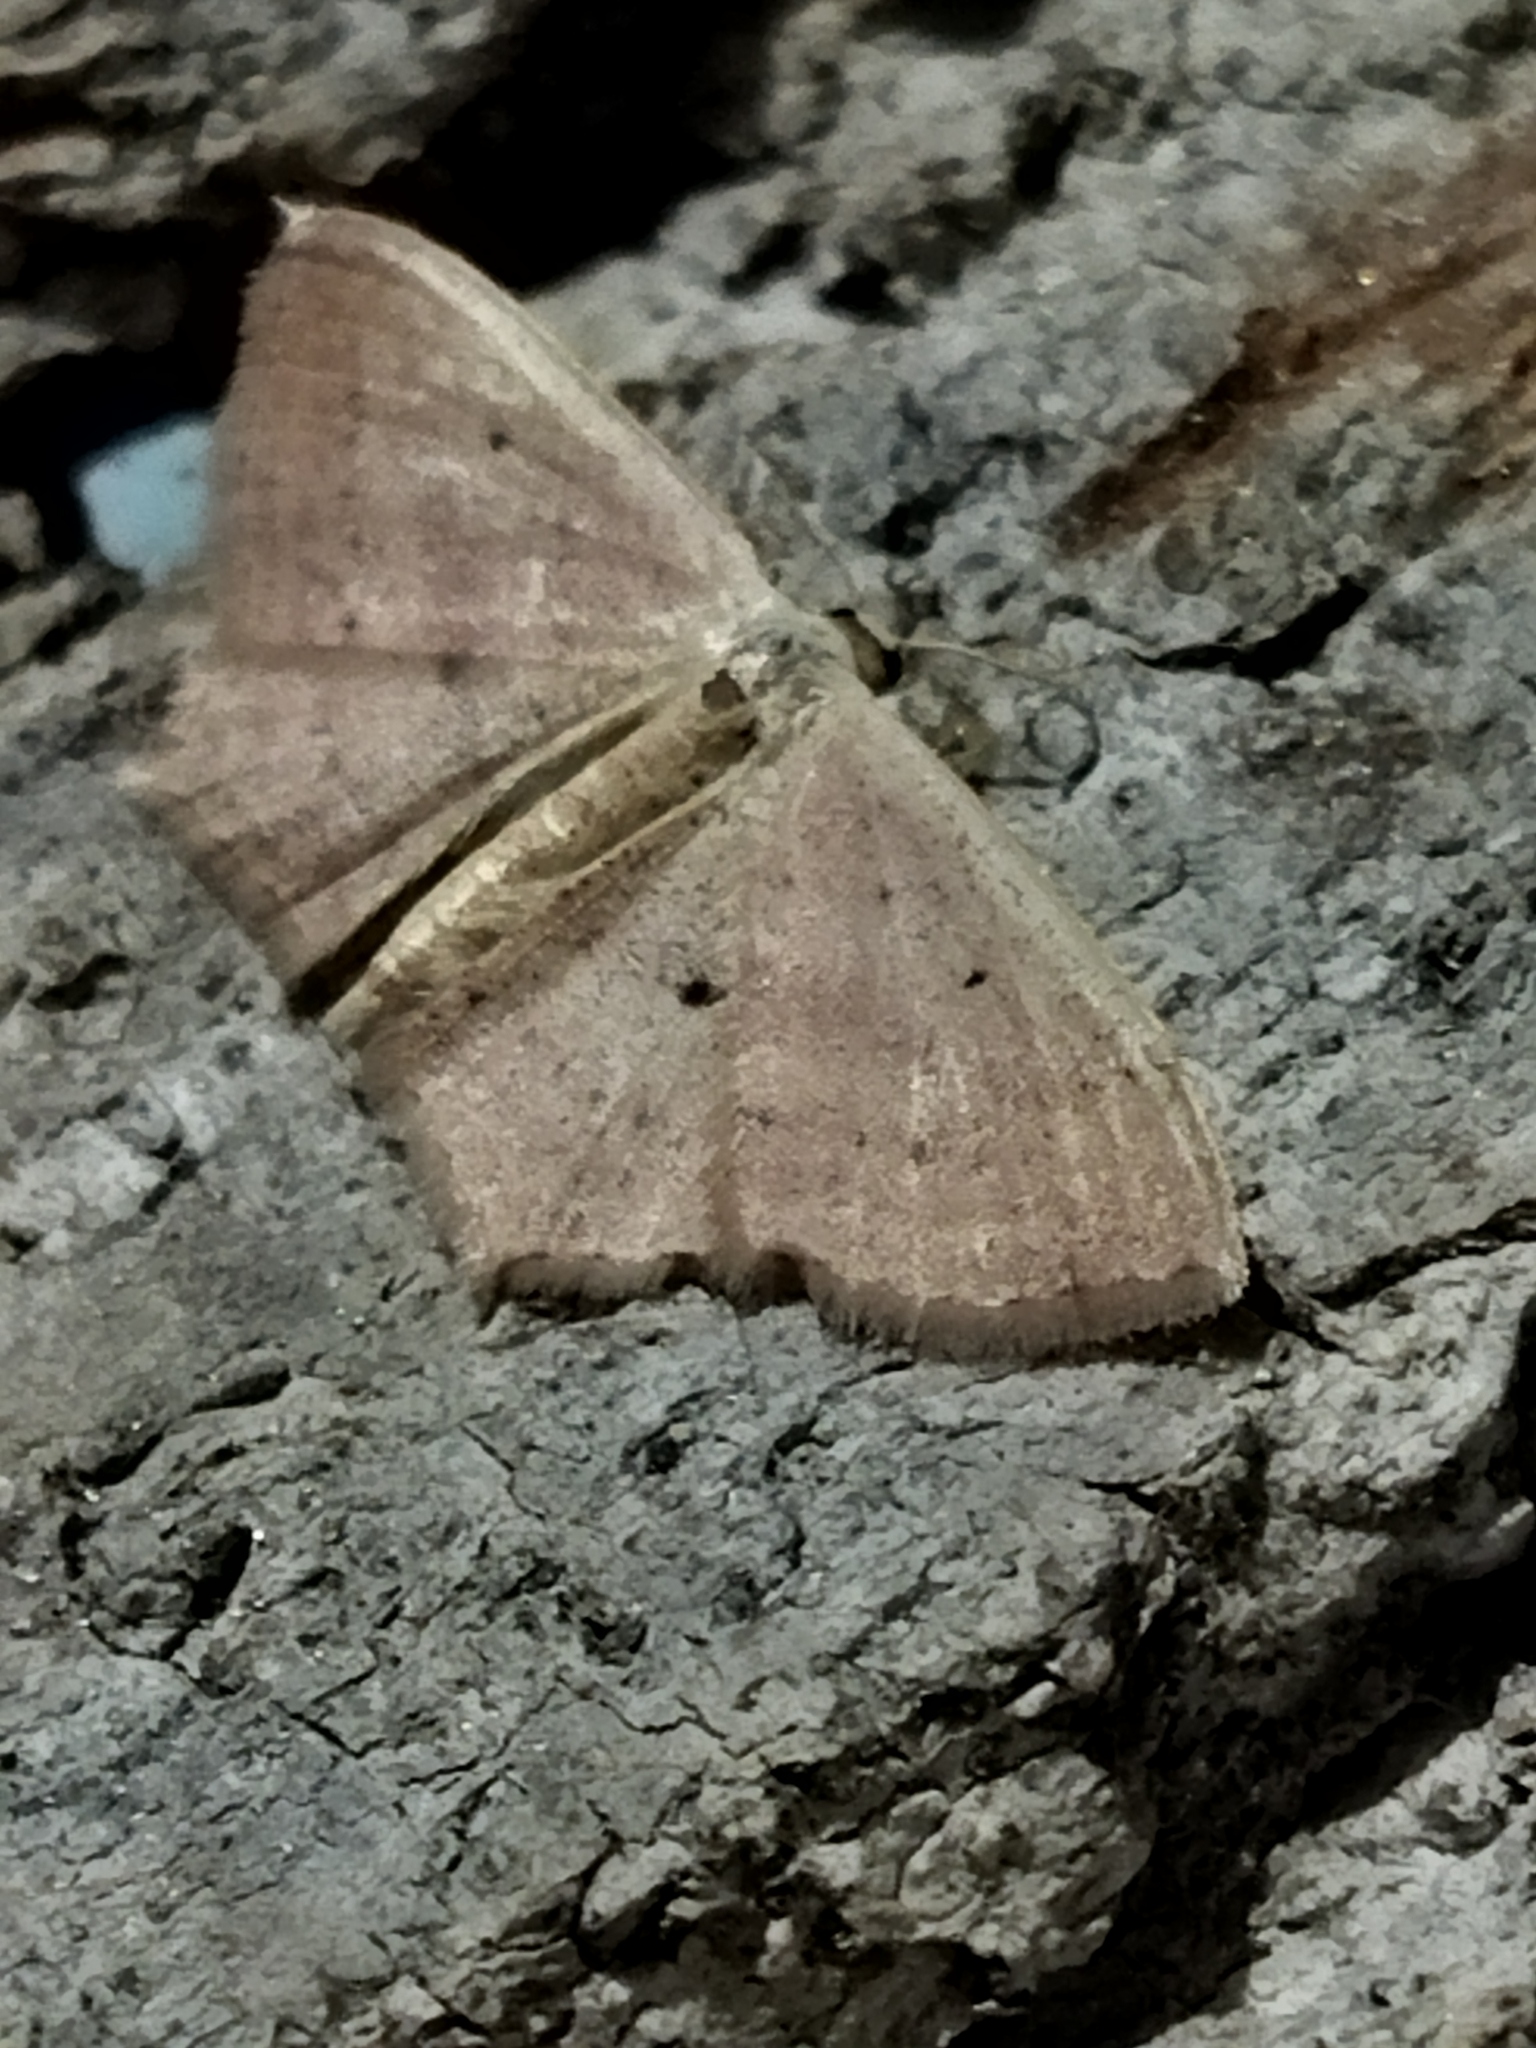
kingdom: Animalia
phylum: Arthropoda
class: Insecta
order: Lepidoptera
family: Geometridae
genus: Scopula
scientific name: Scopula flaccidaria
